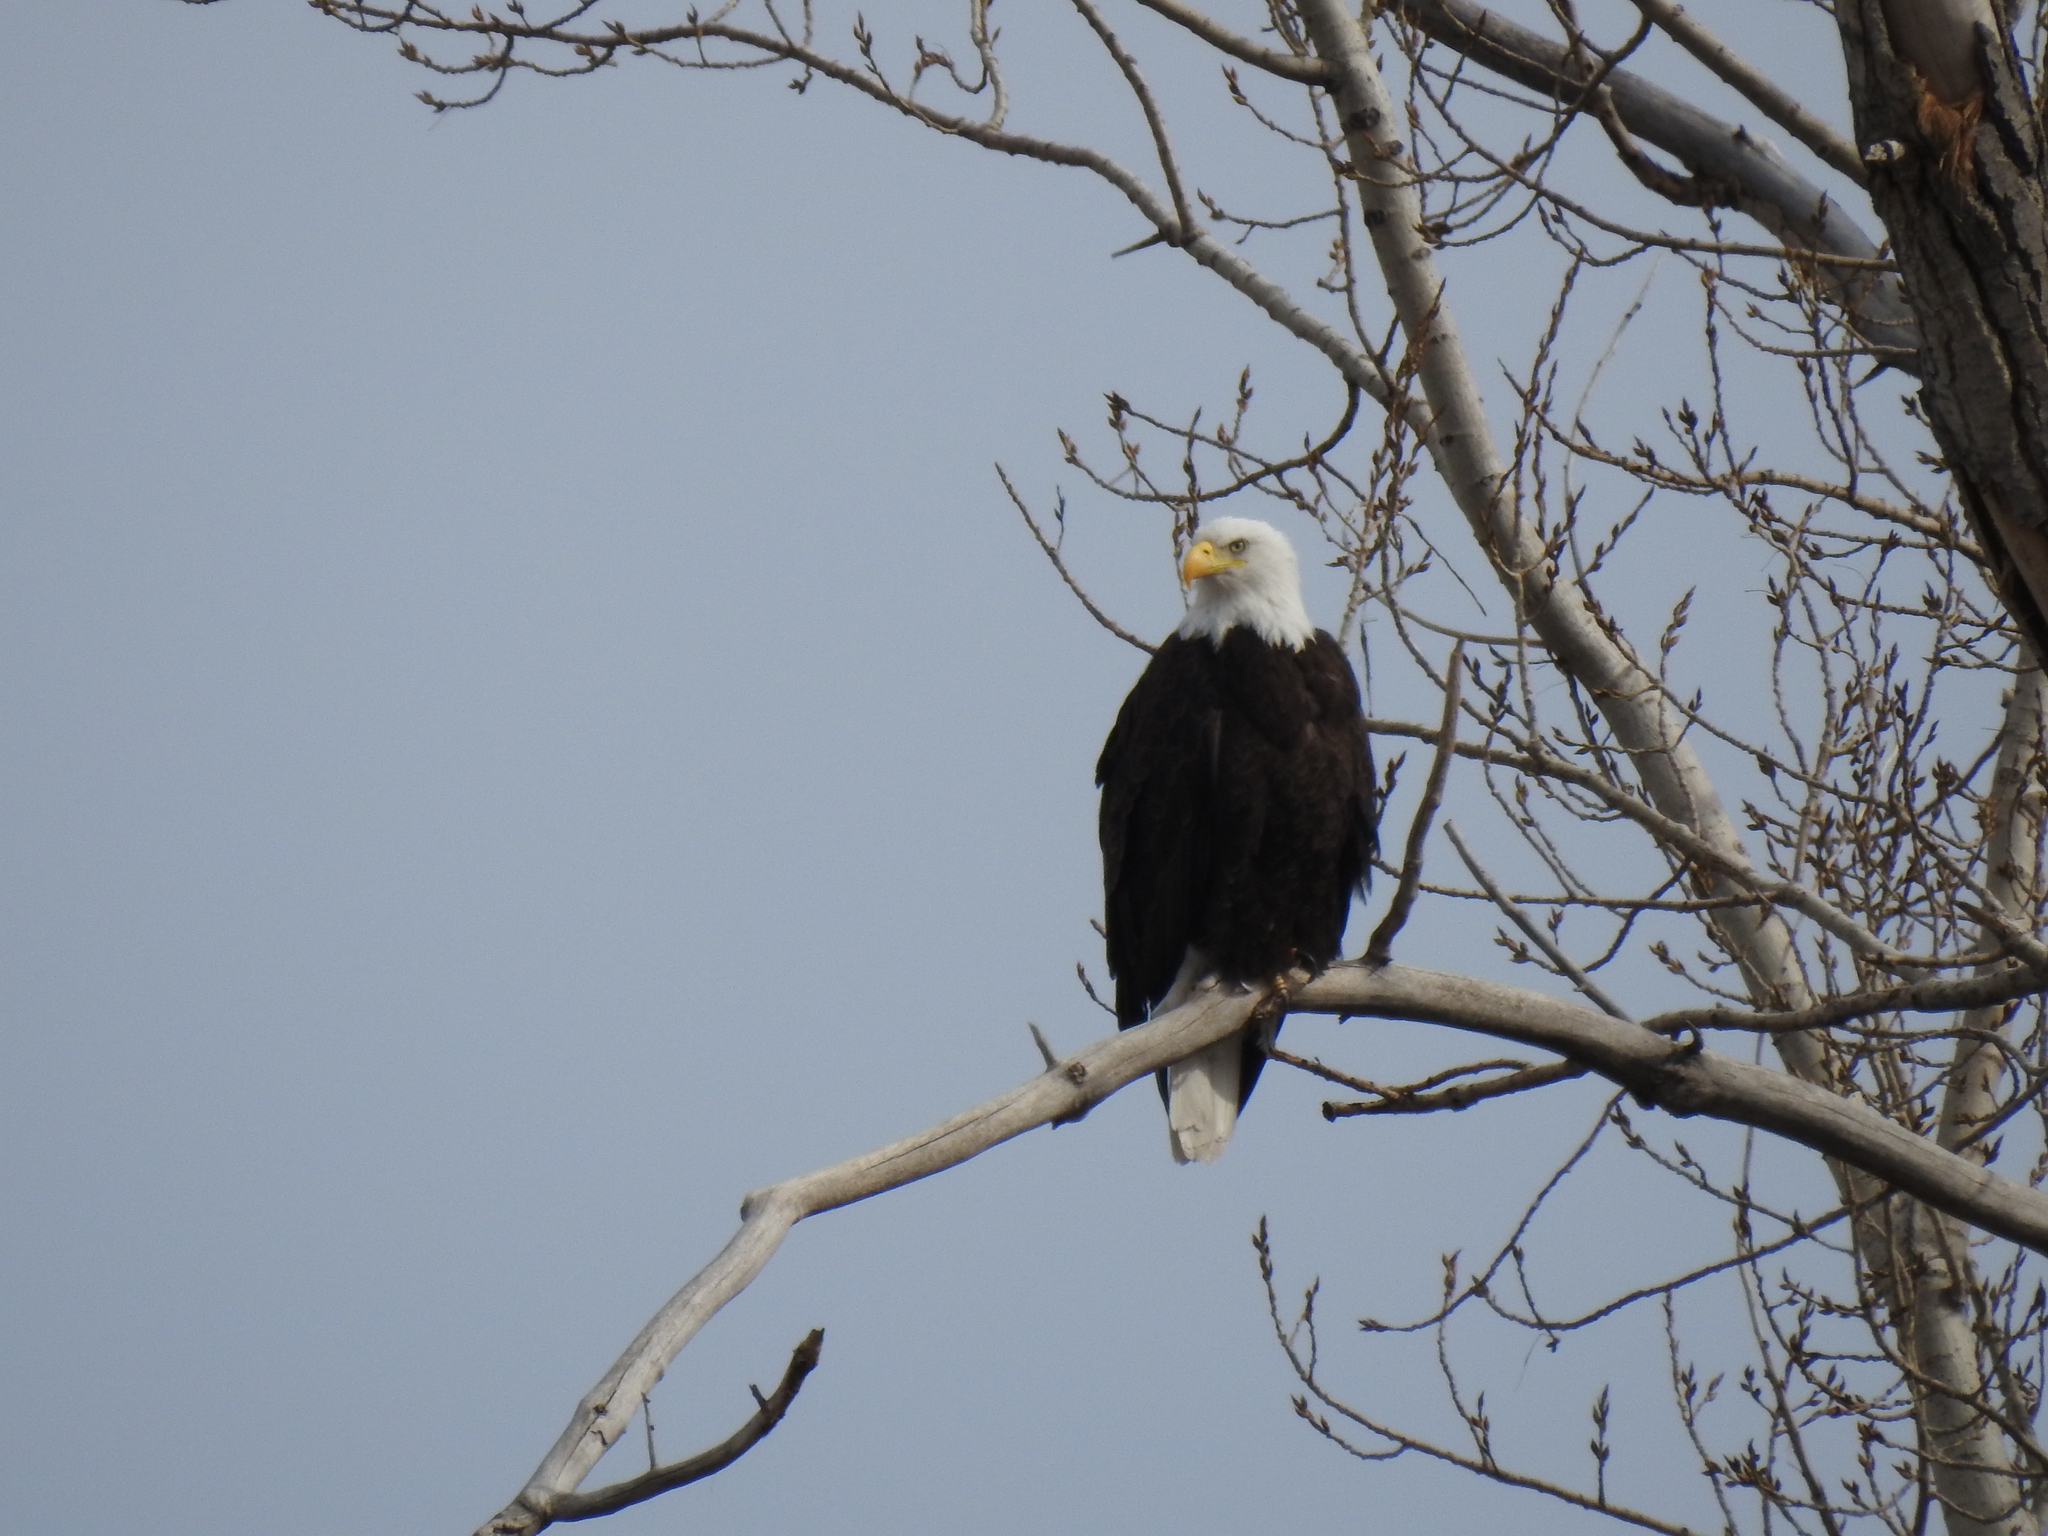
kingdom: Animalia
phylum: Chordata
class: Aves
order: Accipitriformes
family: Accipitridae
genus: Haliaeetus
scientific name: Haliaeetus leucocephalus
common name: Bald eagle
